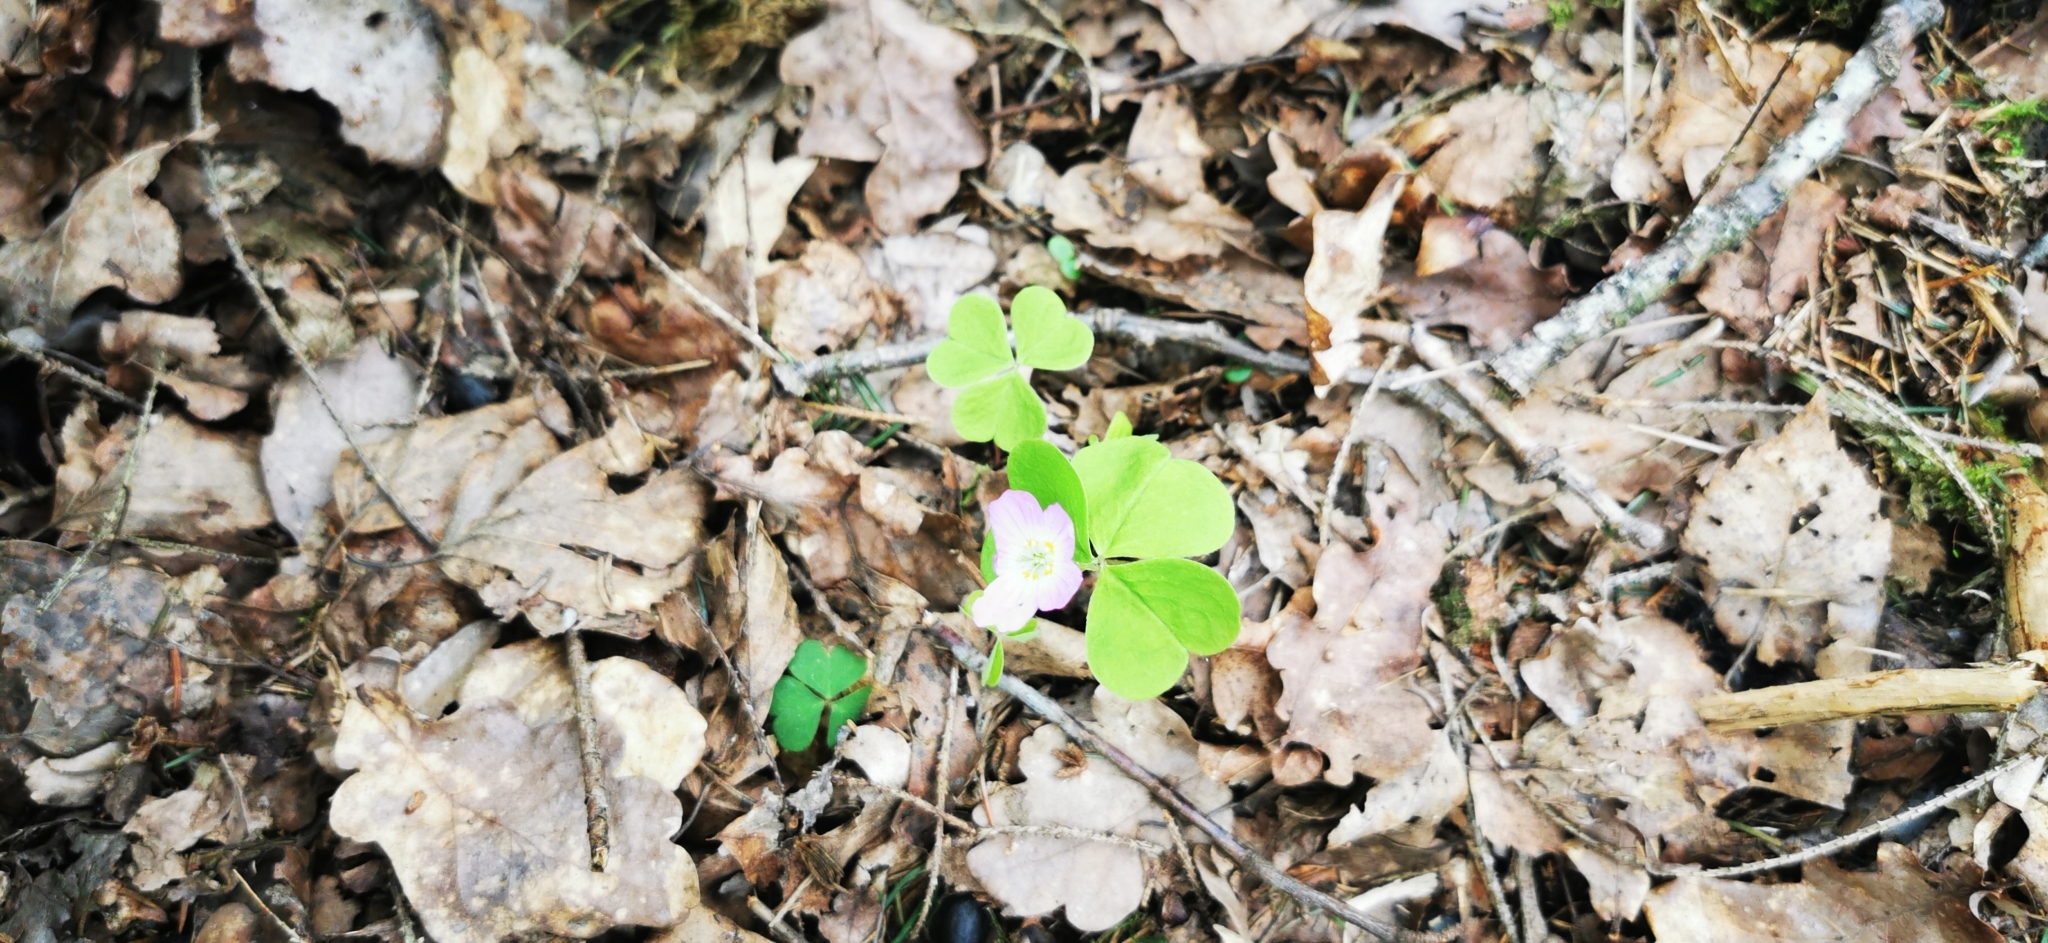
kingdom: Plantae
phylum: Tracheophyta
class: Magnoliopsida
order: Oxalidales
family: Oxalidaceae
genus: Oxalis
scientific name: Oxalis acetosella
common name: Wood-sorrel
